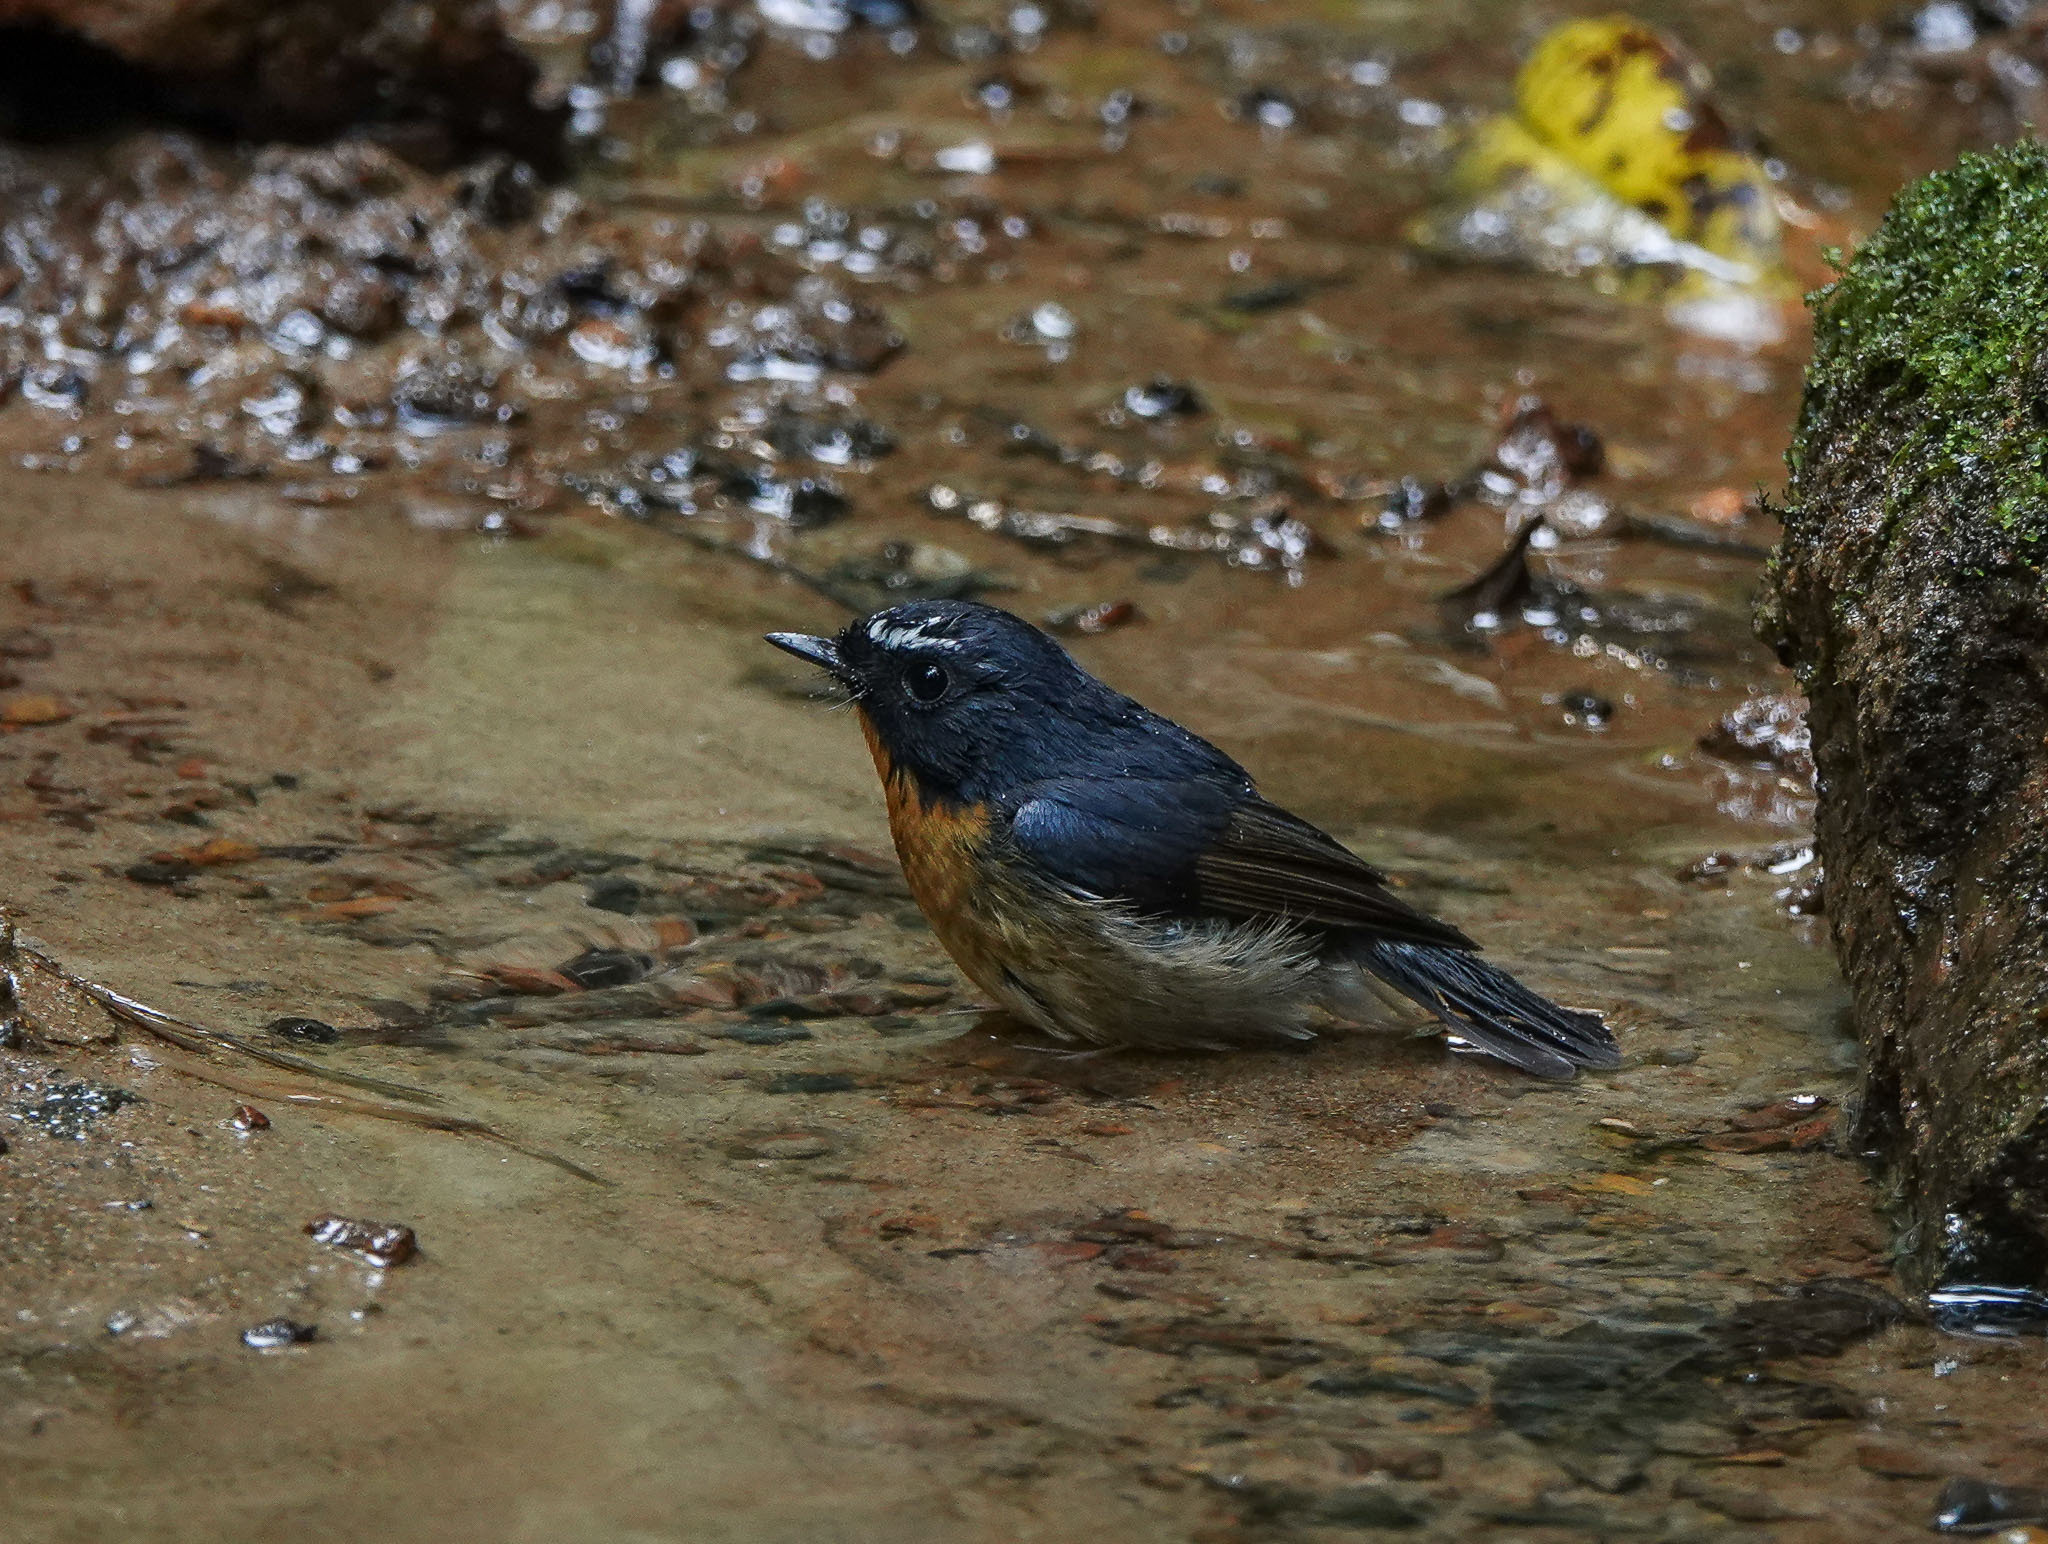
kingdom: Animalia
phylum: Chordata
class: Aves
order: Passeriformes
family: Muscicapidae
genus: Ficedula
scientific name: Ficedula hyperythra
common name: Snowy-browed flycatcher
